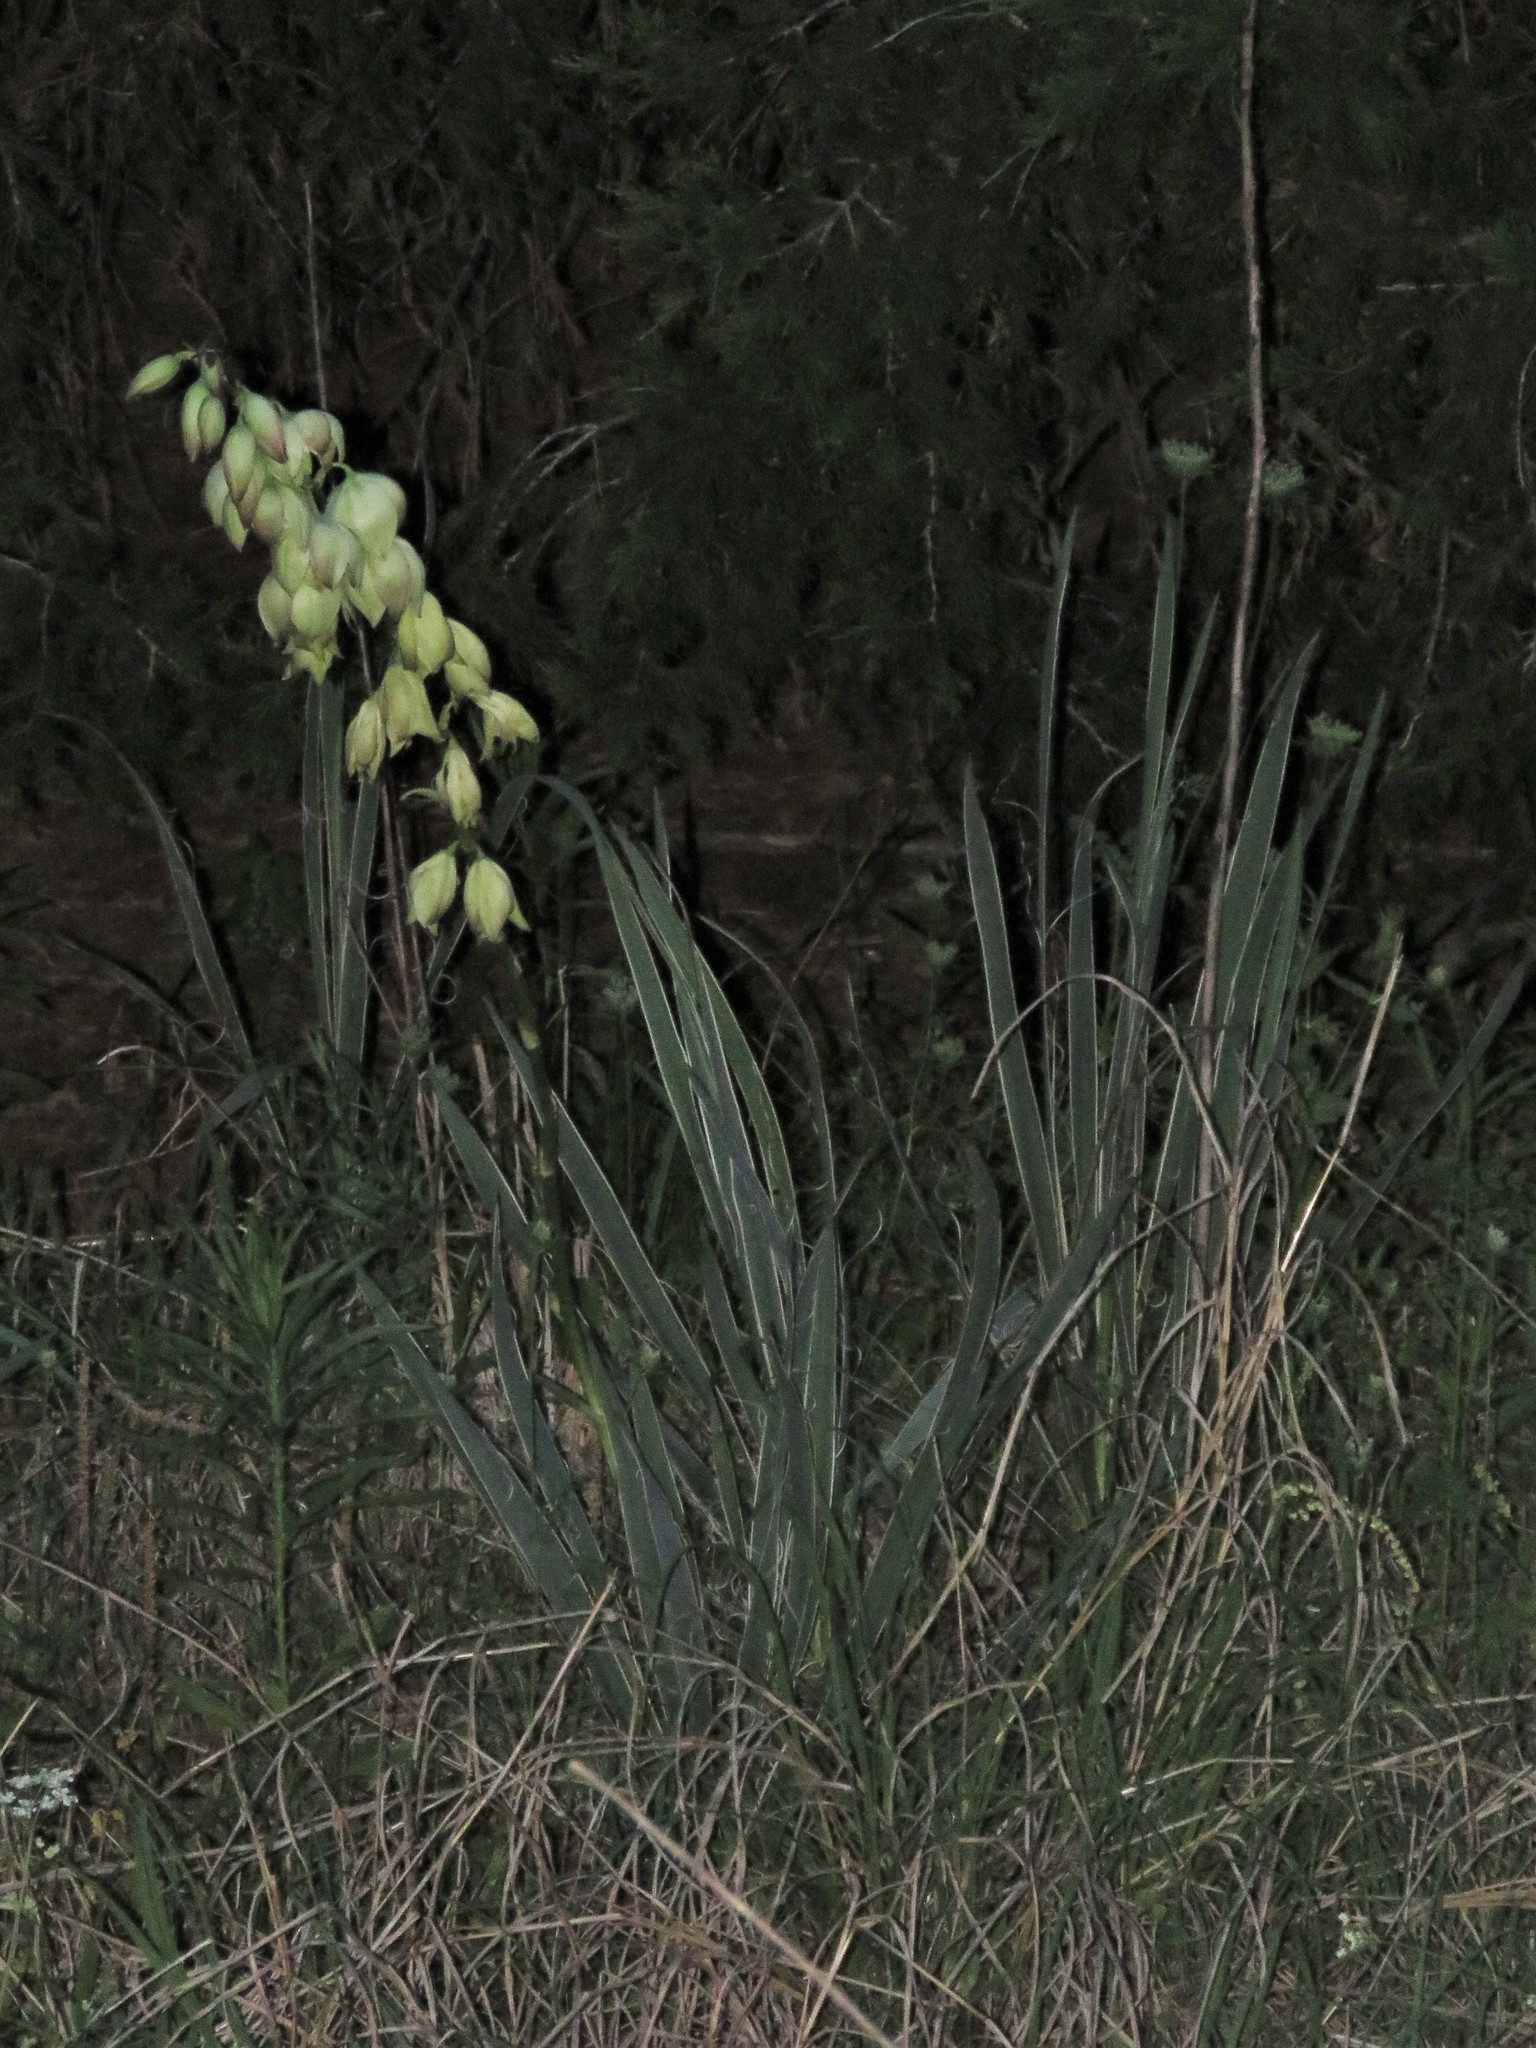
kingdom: Plantae
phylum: Tracheophyta
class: Liliopsida
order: Asparagales
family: Asparagaceae
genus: Yucca
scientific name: Yucca arkansana
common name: Arkansas yucca
